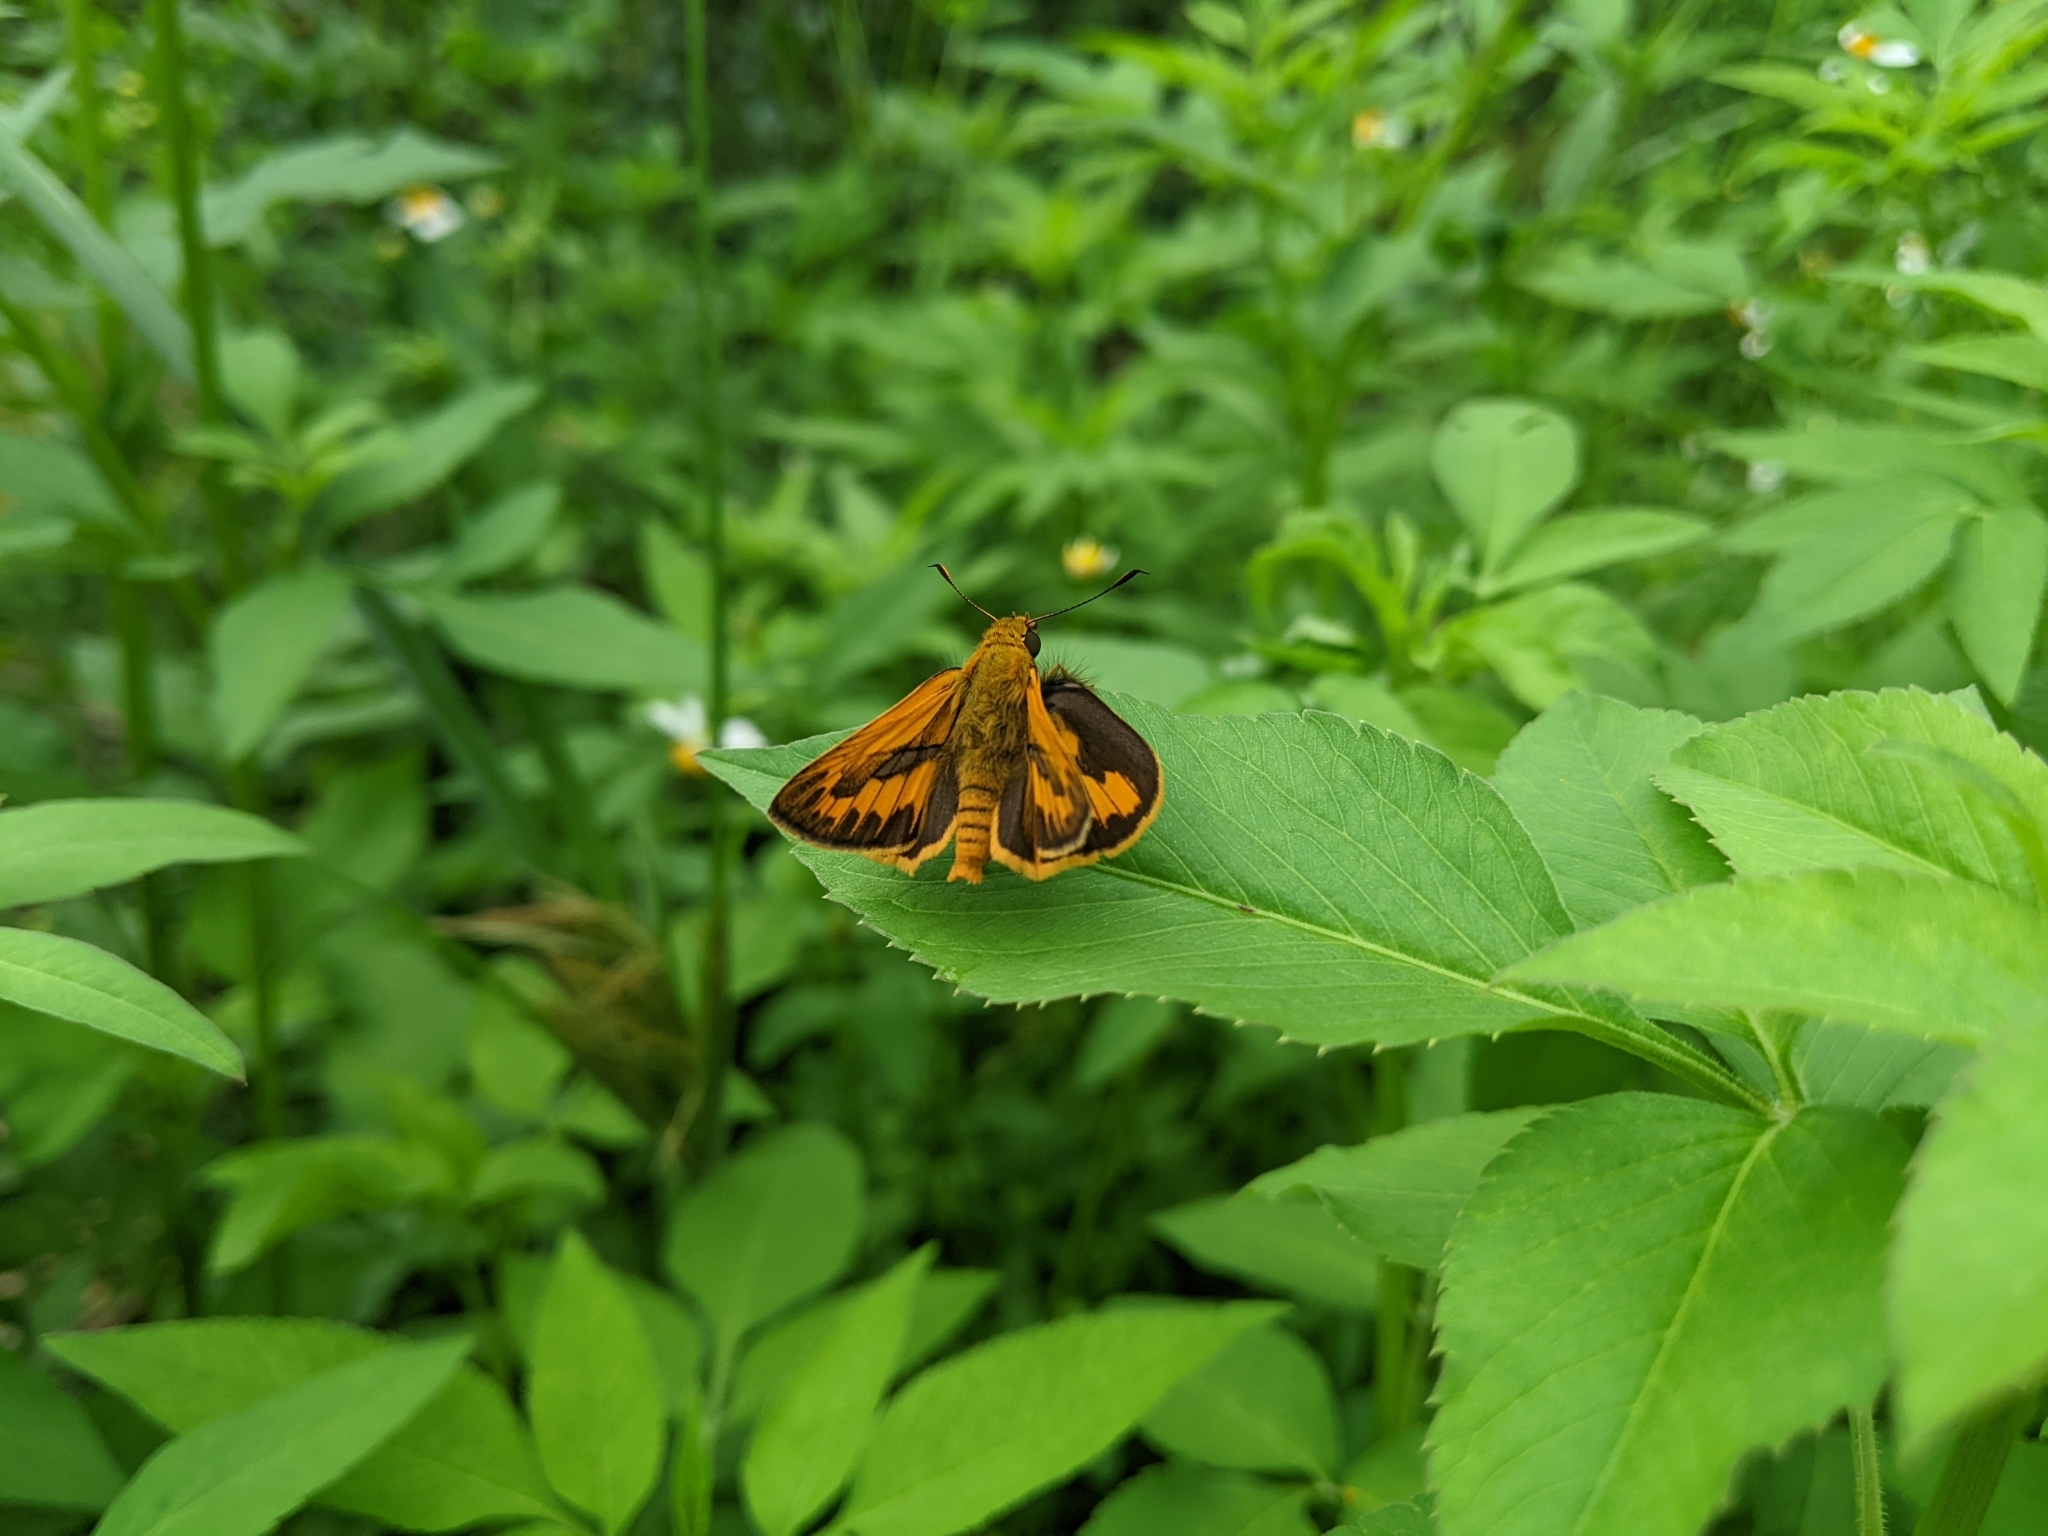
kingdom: Animalia
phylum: Arthropoda
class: Insecta
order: Lepidoptera
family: Hesperiidae
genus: Telicota
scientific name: Telicota bambusae
